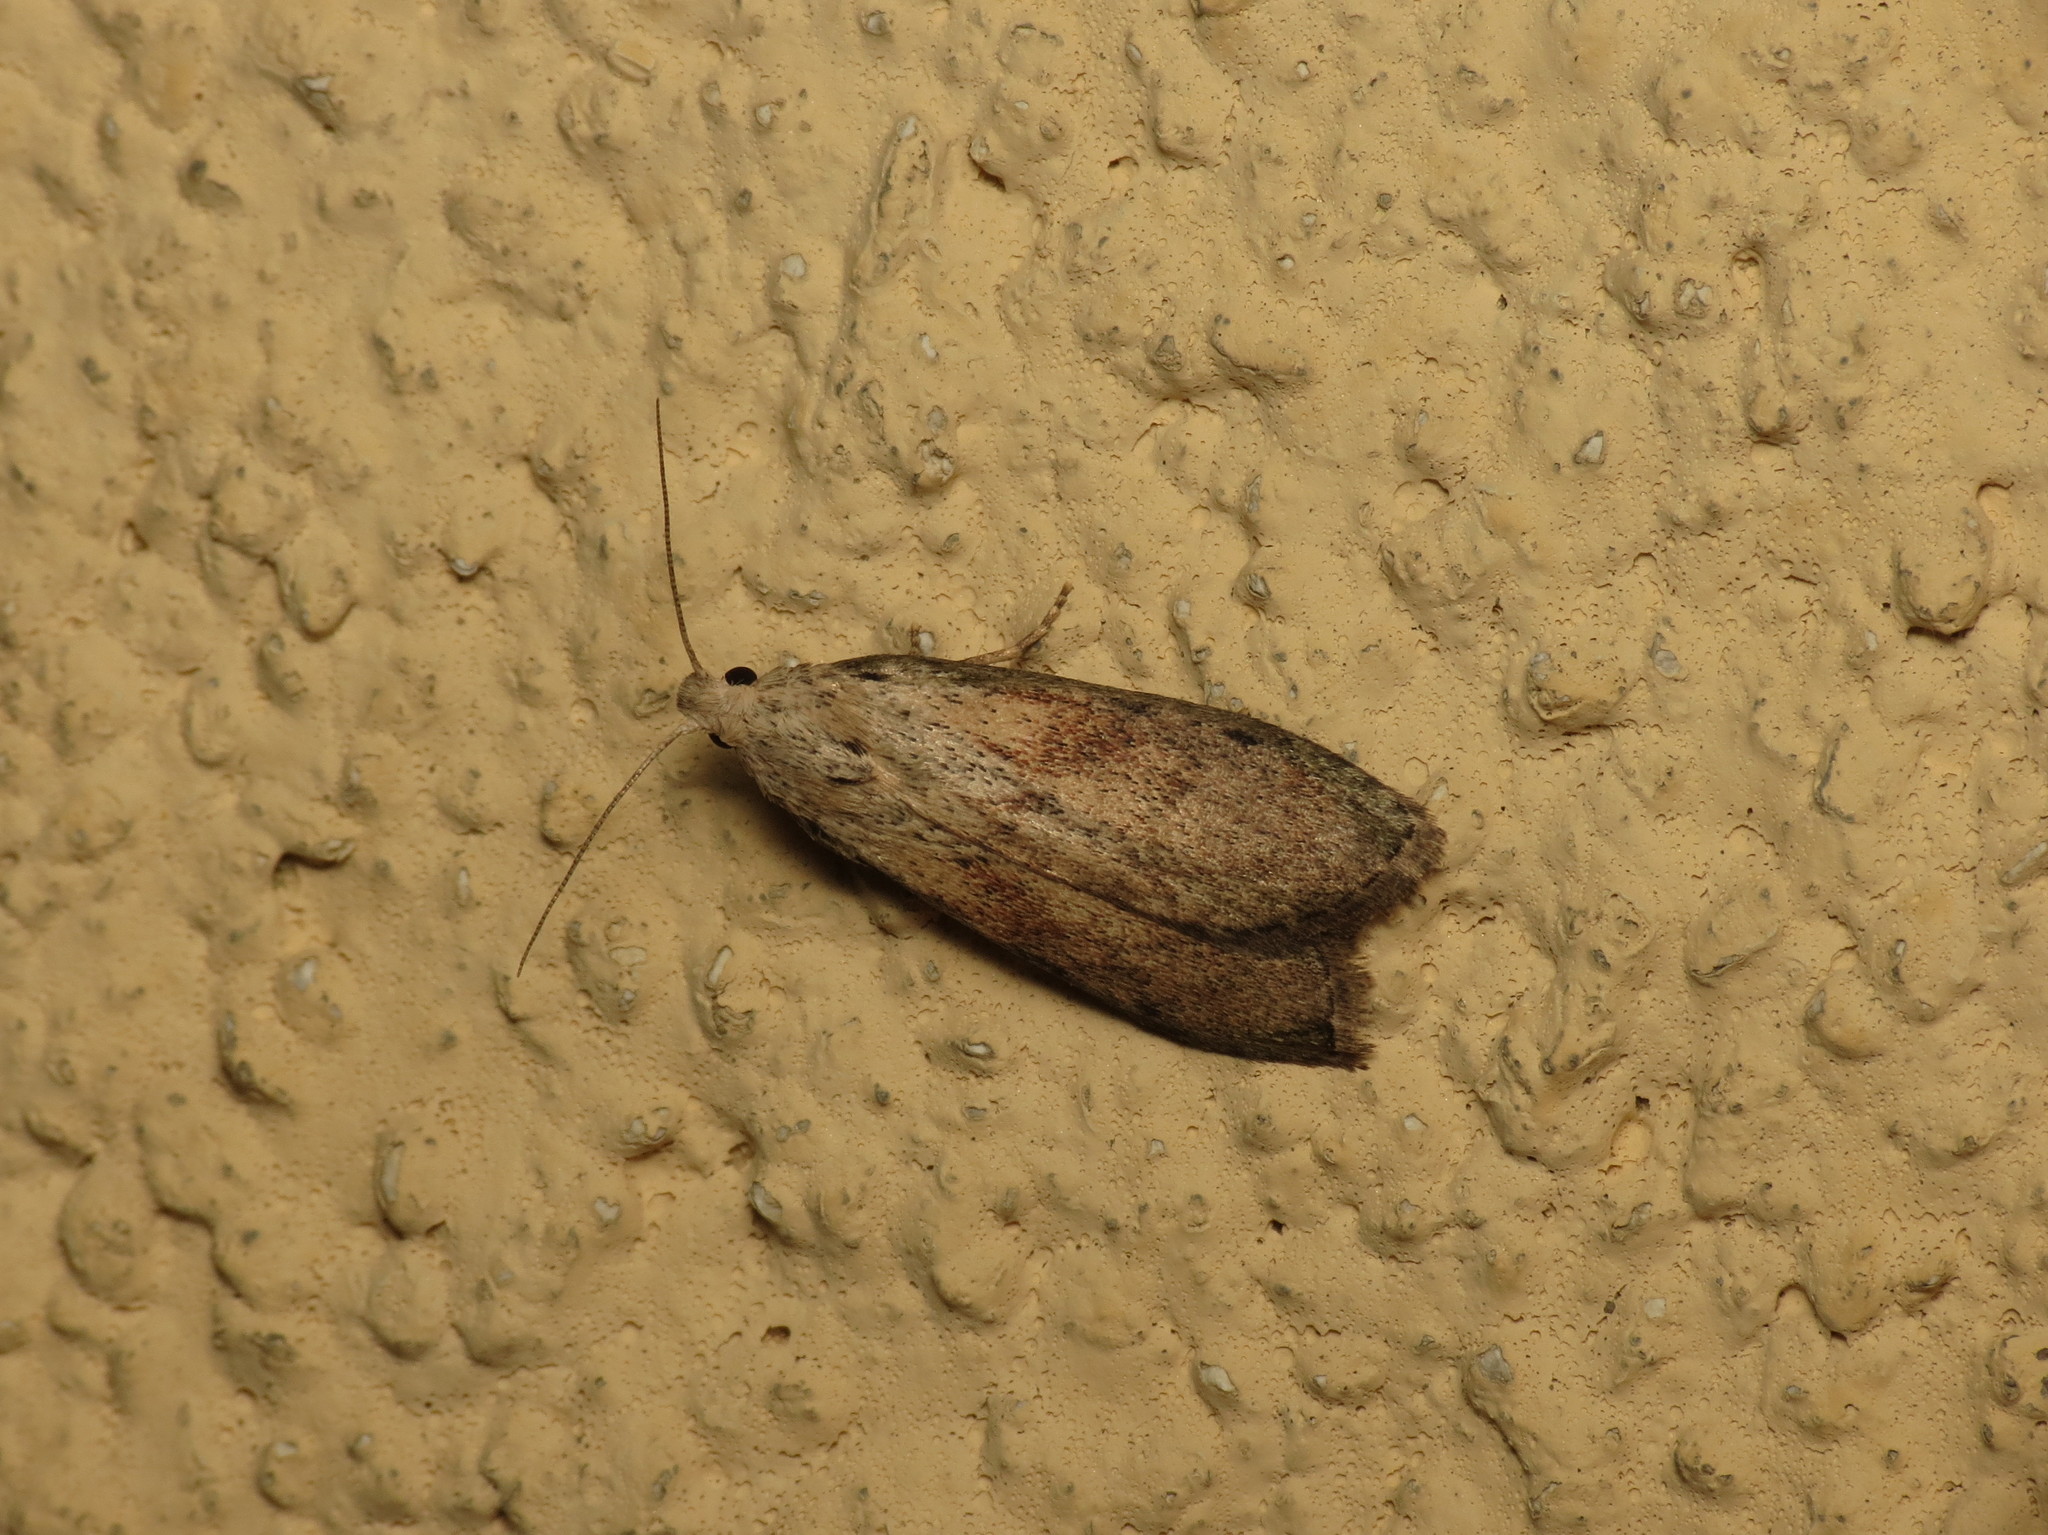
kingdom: Animalia
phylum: Arthropoda
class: Insecta
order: Lepidoptera
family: Pyralidae
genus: Aphomia
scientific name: Aphomia sociella
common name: Bee moth
